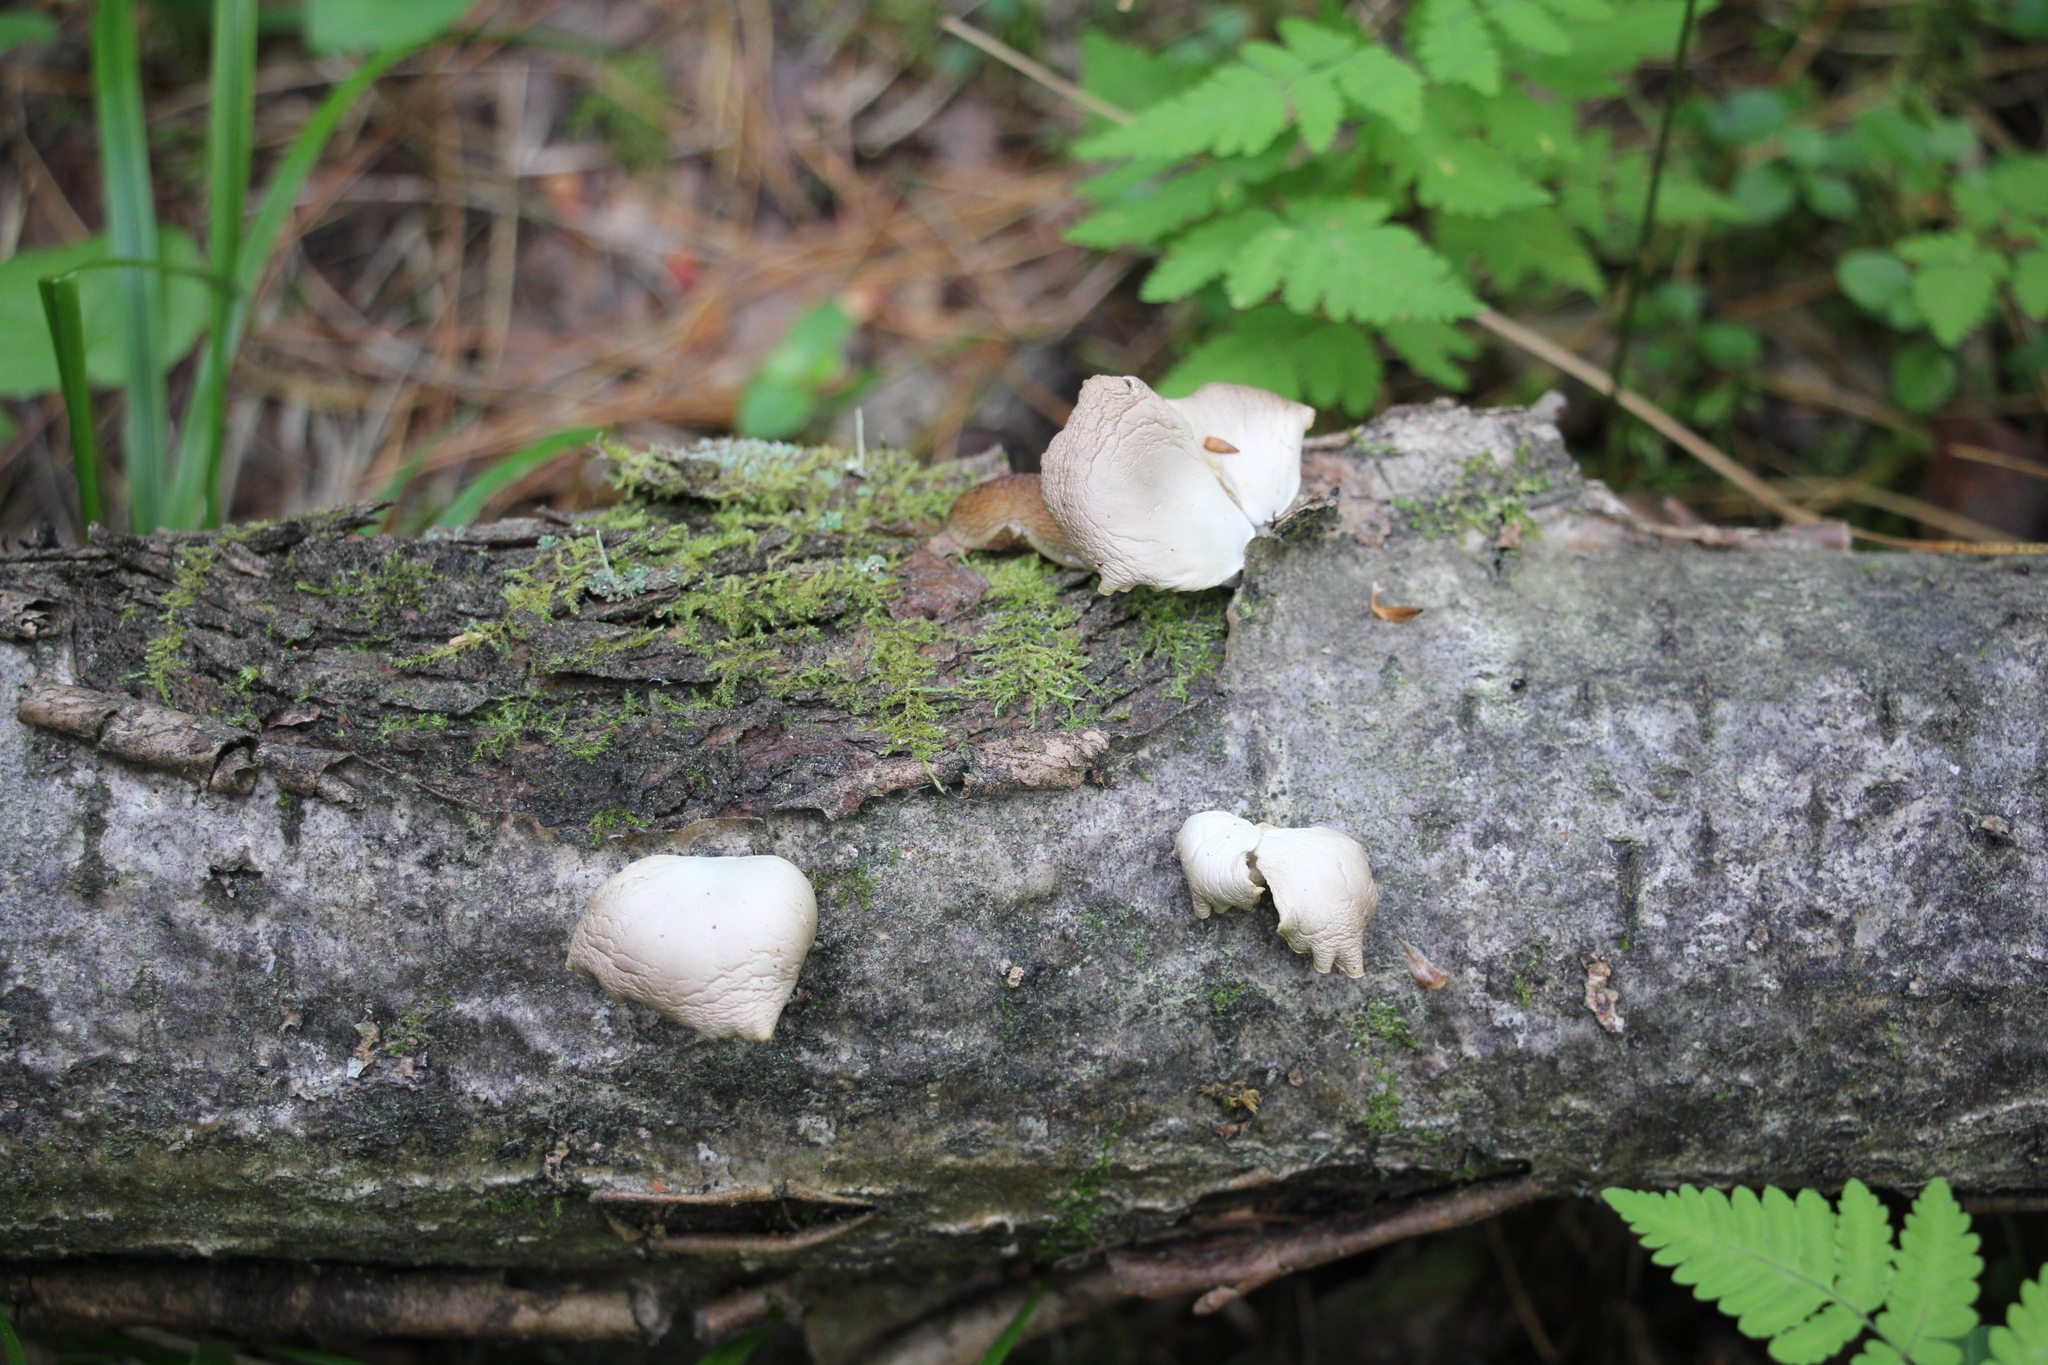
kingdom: Fungi
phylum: Basidiomycota
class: Agaricomycetes
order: Agaricales
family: Pleurotaceae
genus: Pleurotus
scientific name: Pleurotus pulmonarius
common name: Pale oyster
